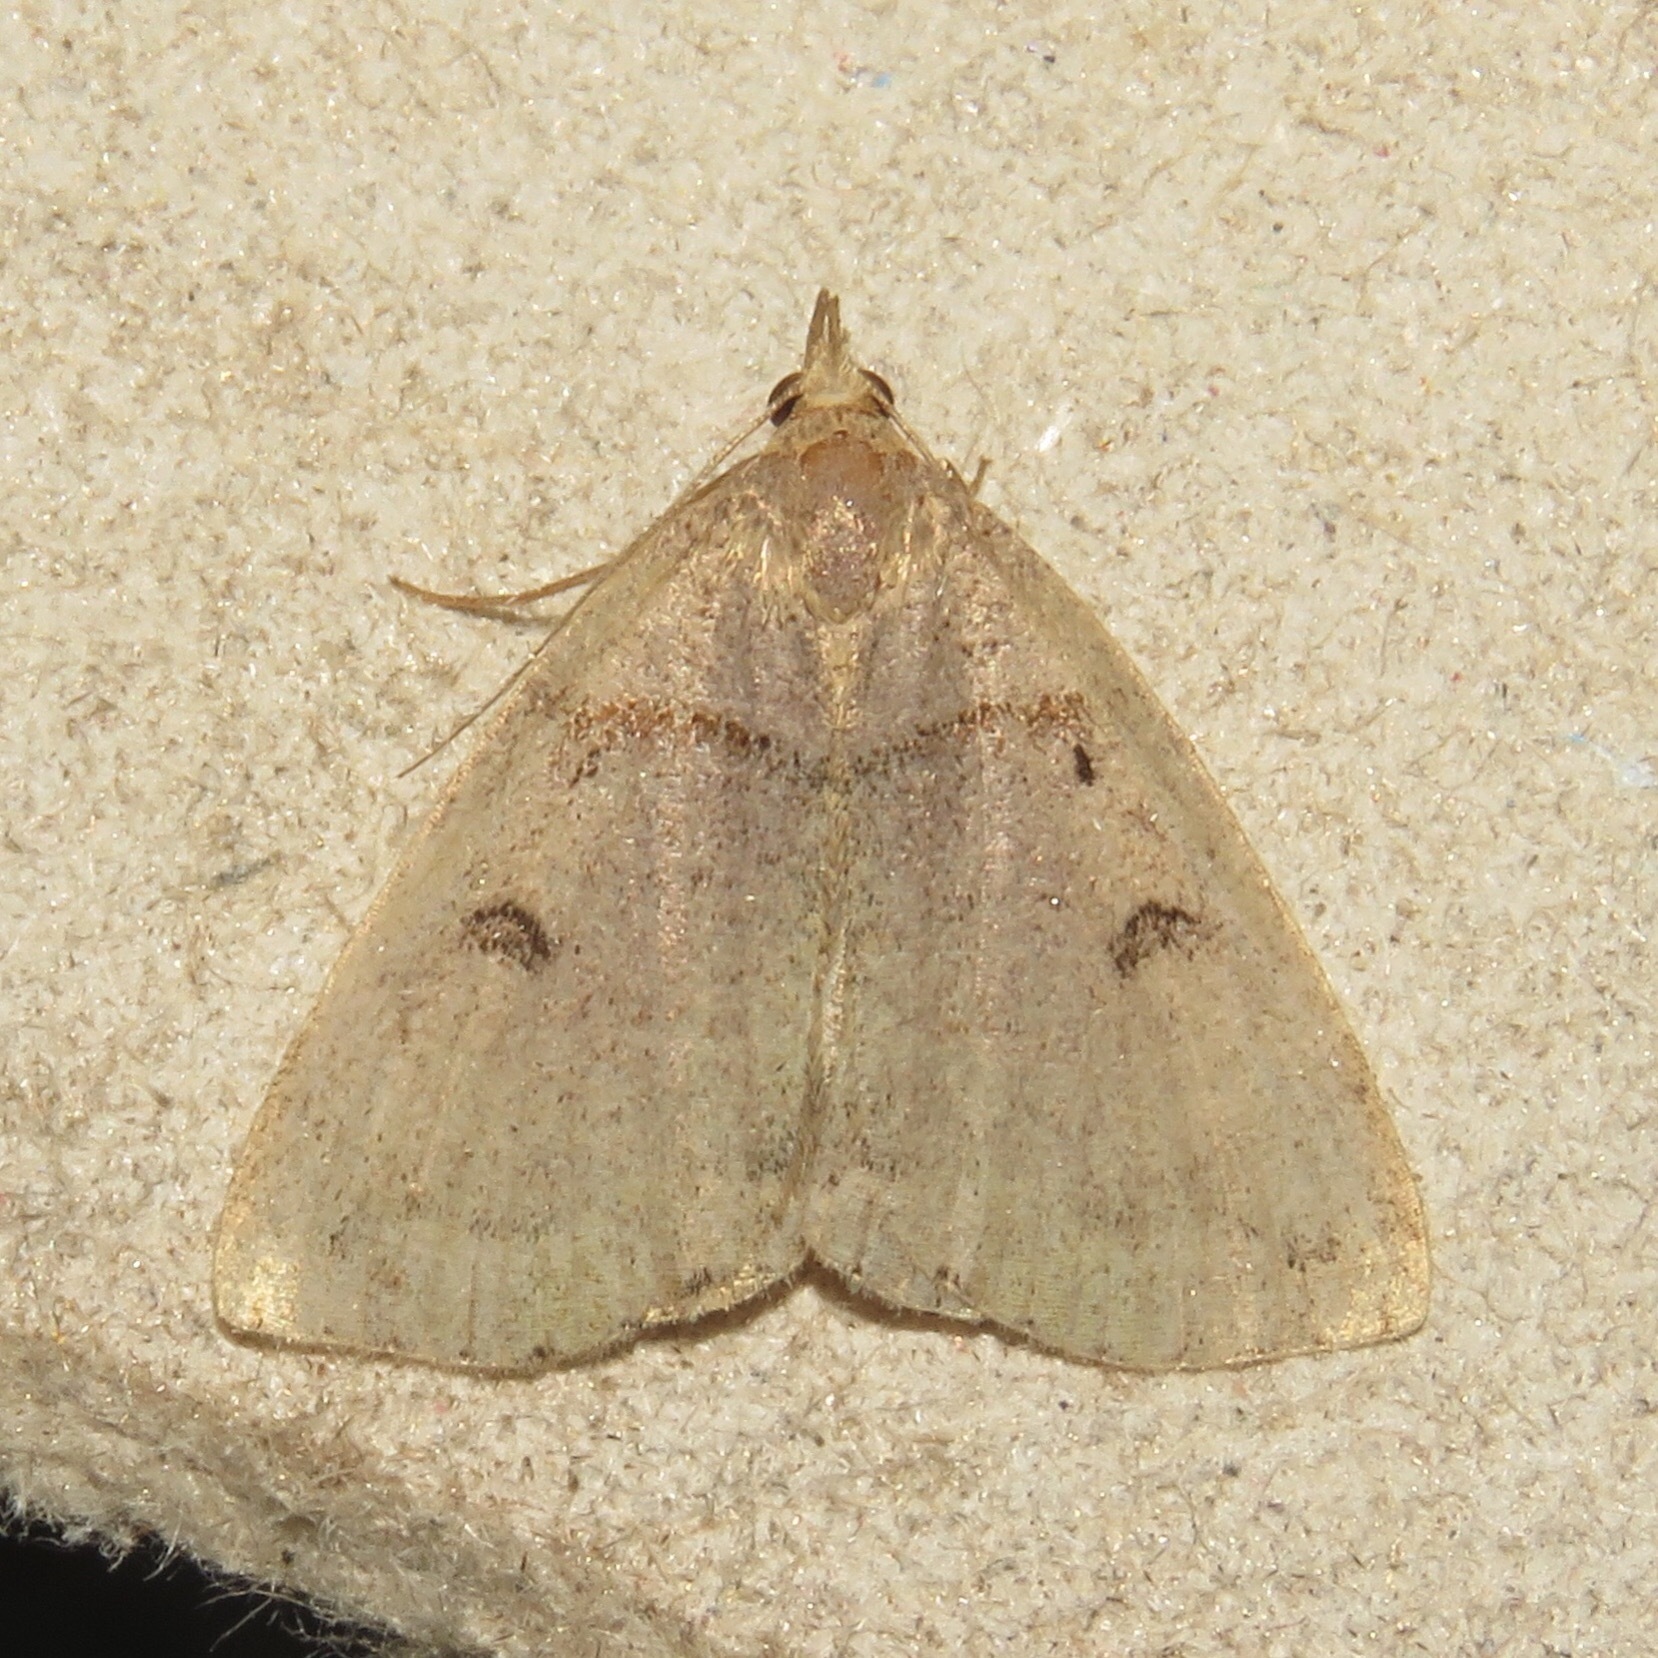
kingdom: Animalia
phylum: Arthropoda
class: Insecta
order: Lepidoptera
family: Erebidae
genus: Zanclognatha
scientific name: Zanclognatha laevigata
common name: Variable fan-foot
